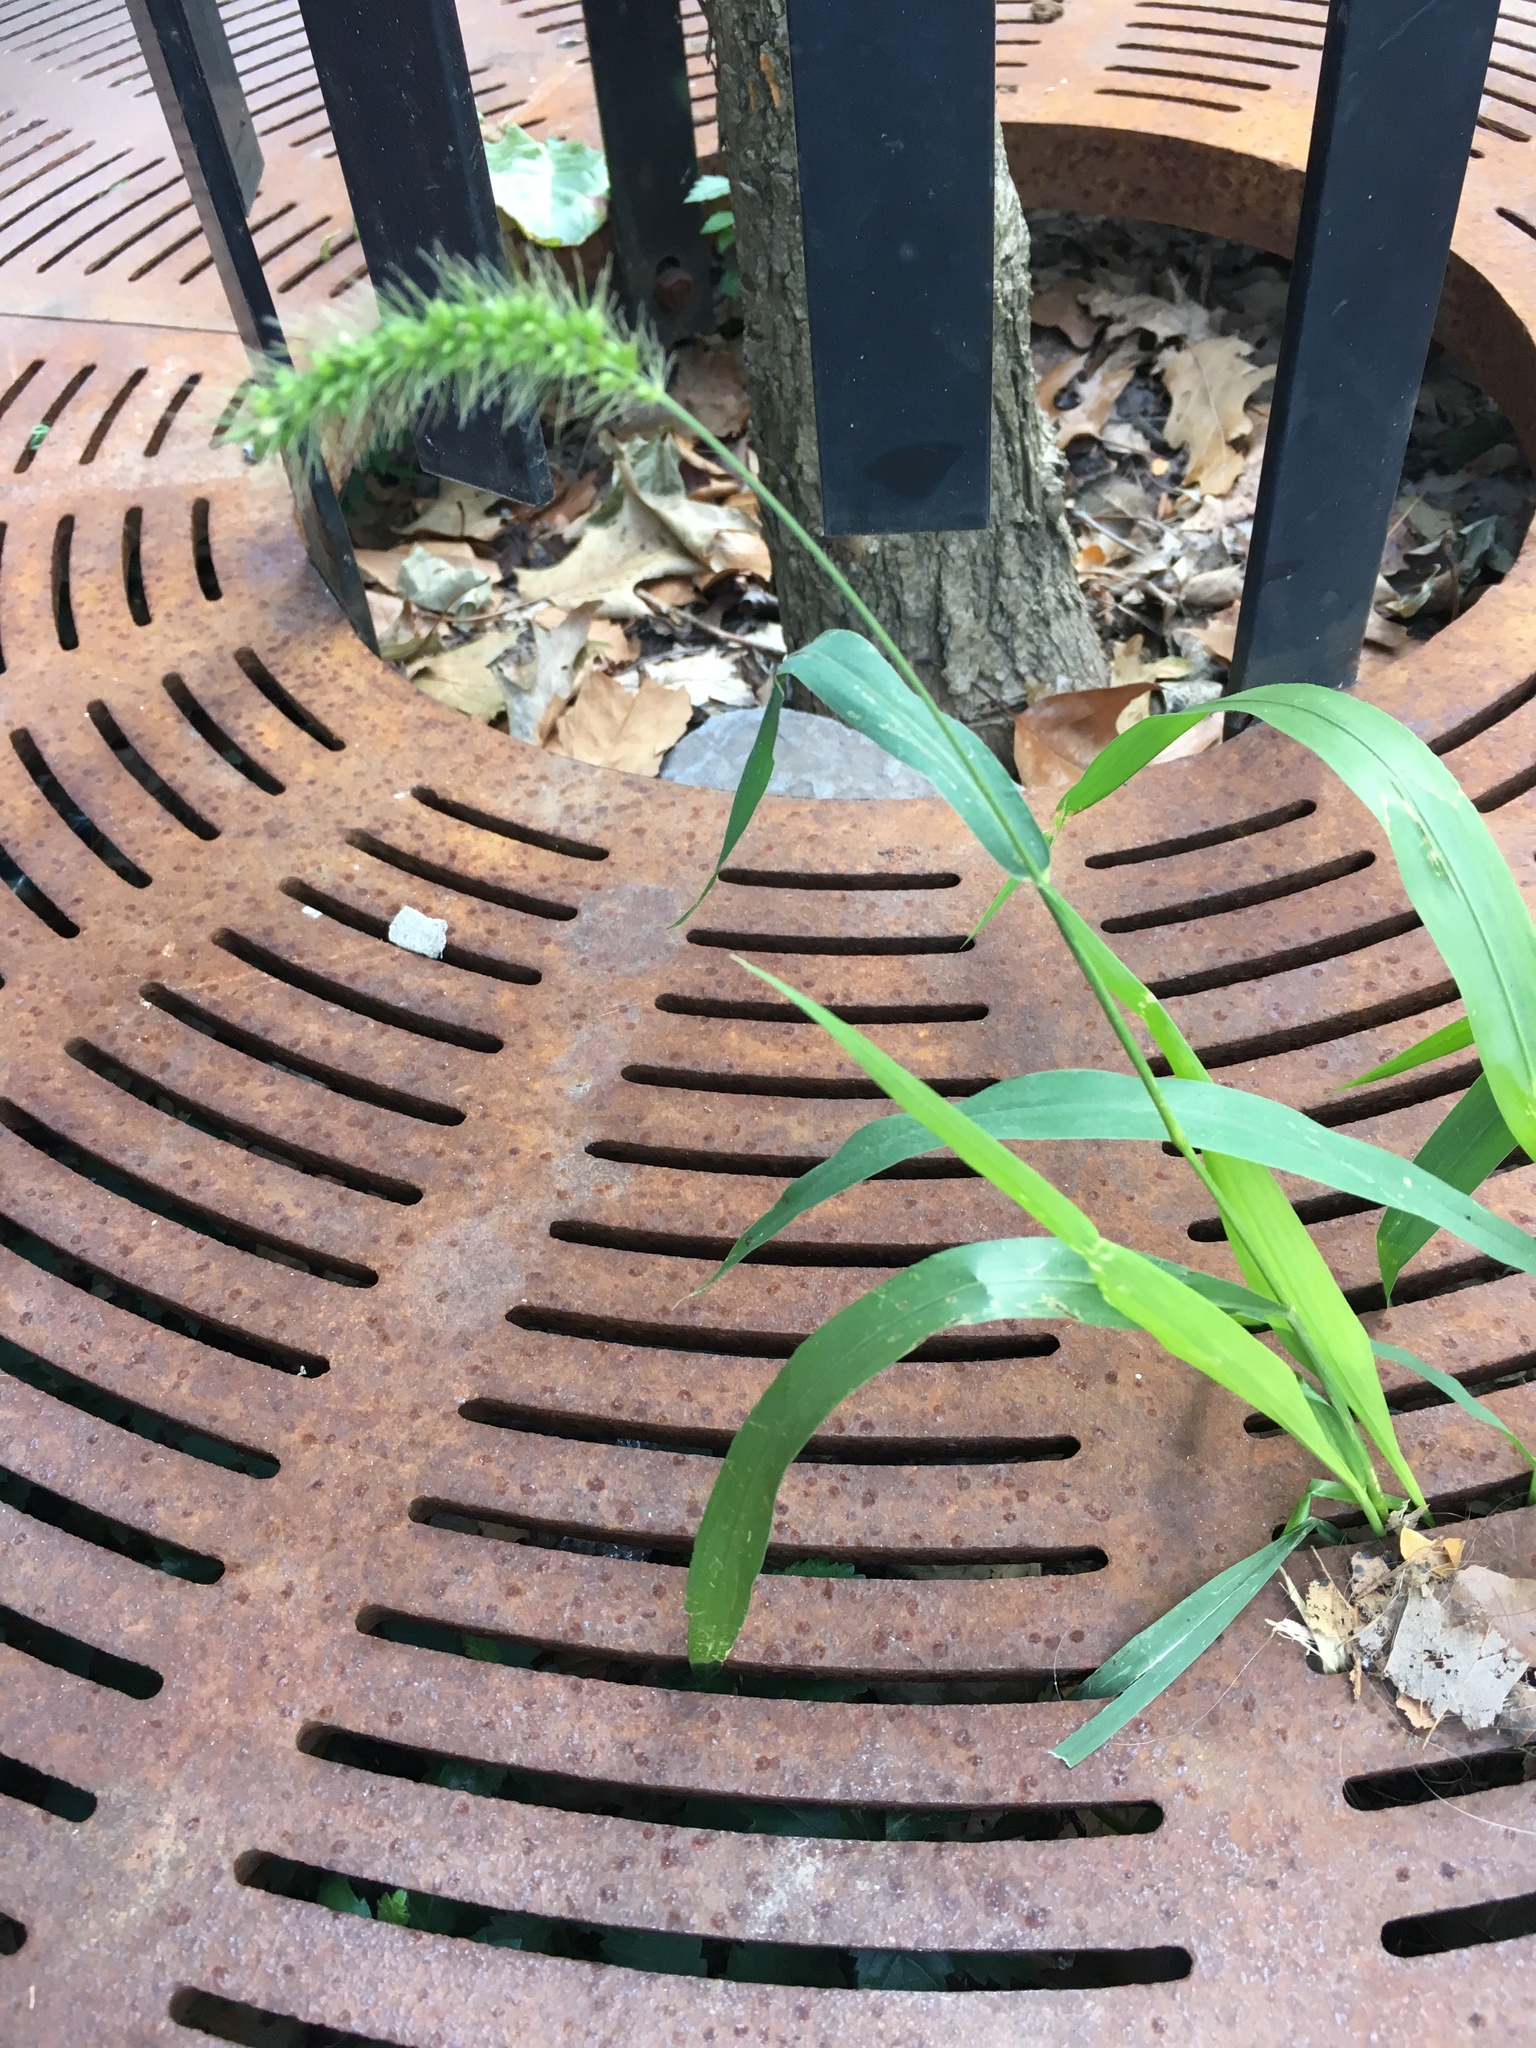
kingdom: Plantae
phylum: Tracheophyta
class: Liliopsida
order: Poales
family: Poaceae
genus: Setaria
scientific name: Setaria faberi
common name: Nodding bristle-grass
